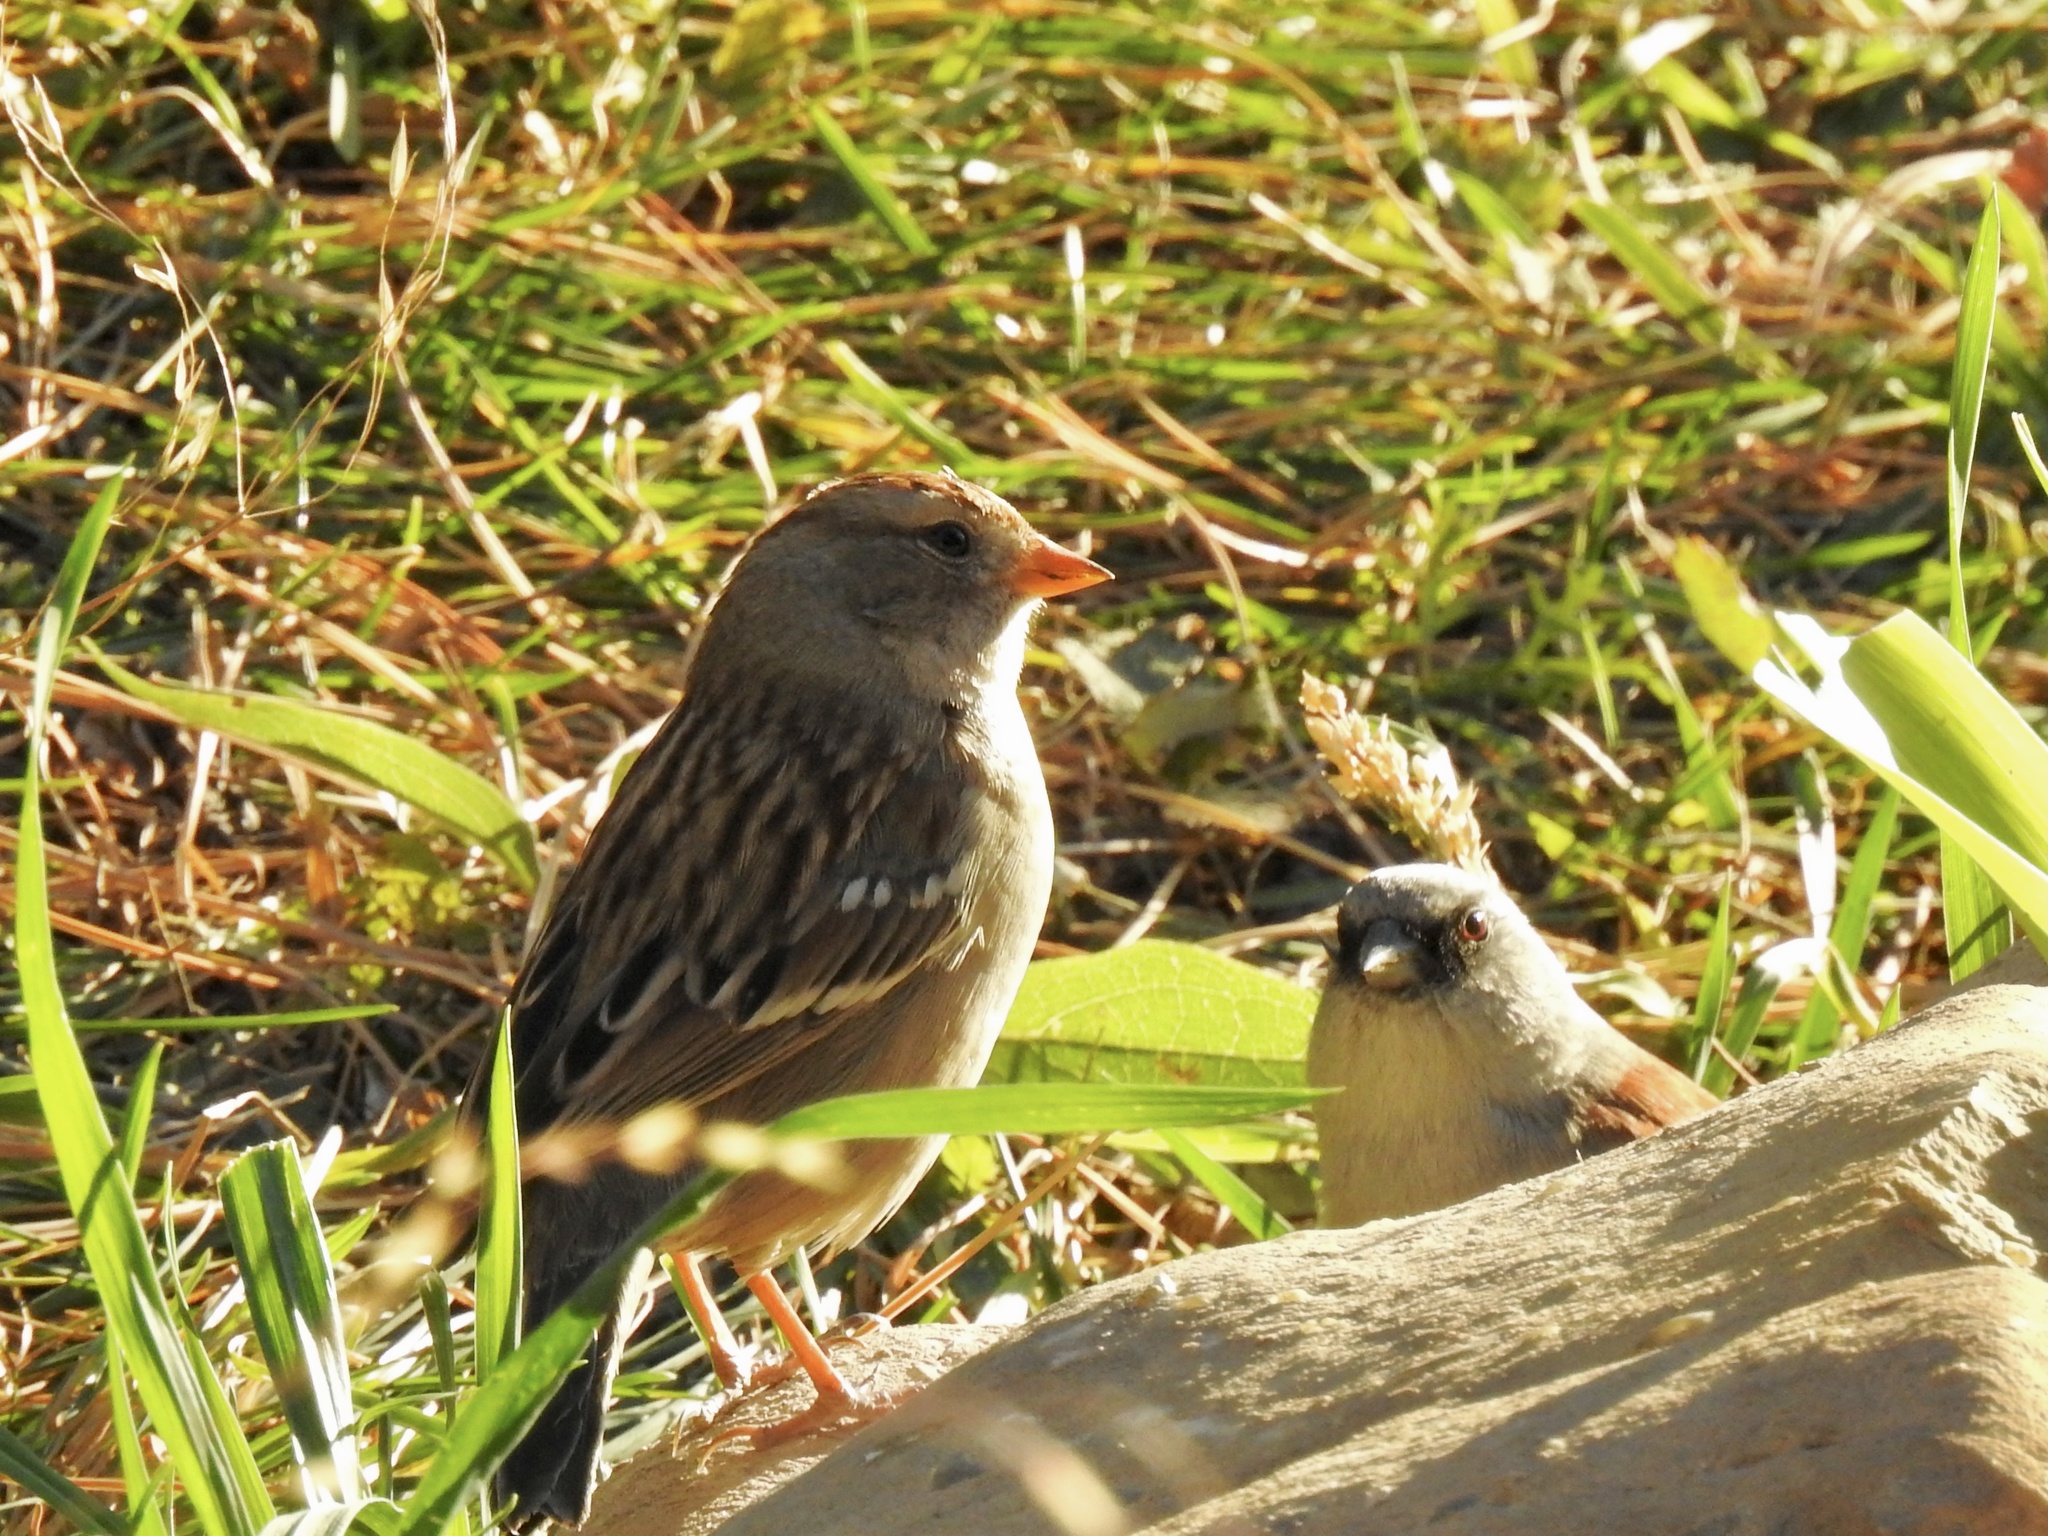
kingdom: Animalia
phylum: Chordata
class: Aves
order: Passeriformes
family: Passerellidae
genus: Zonotrichia
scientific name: Zonotrichia leucophrys
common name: White-crowned sparrow
